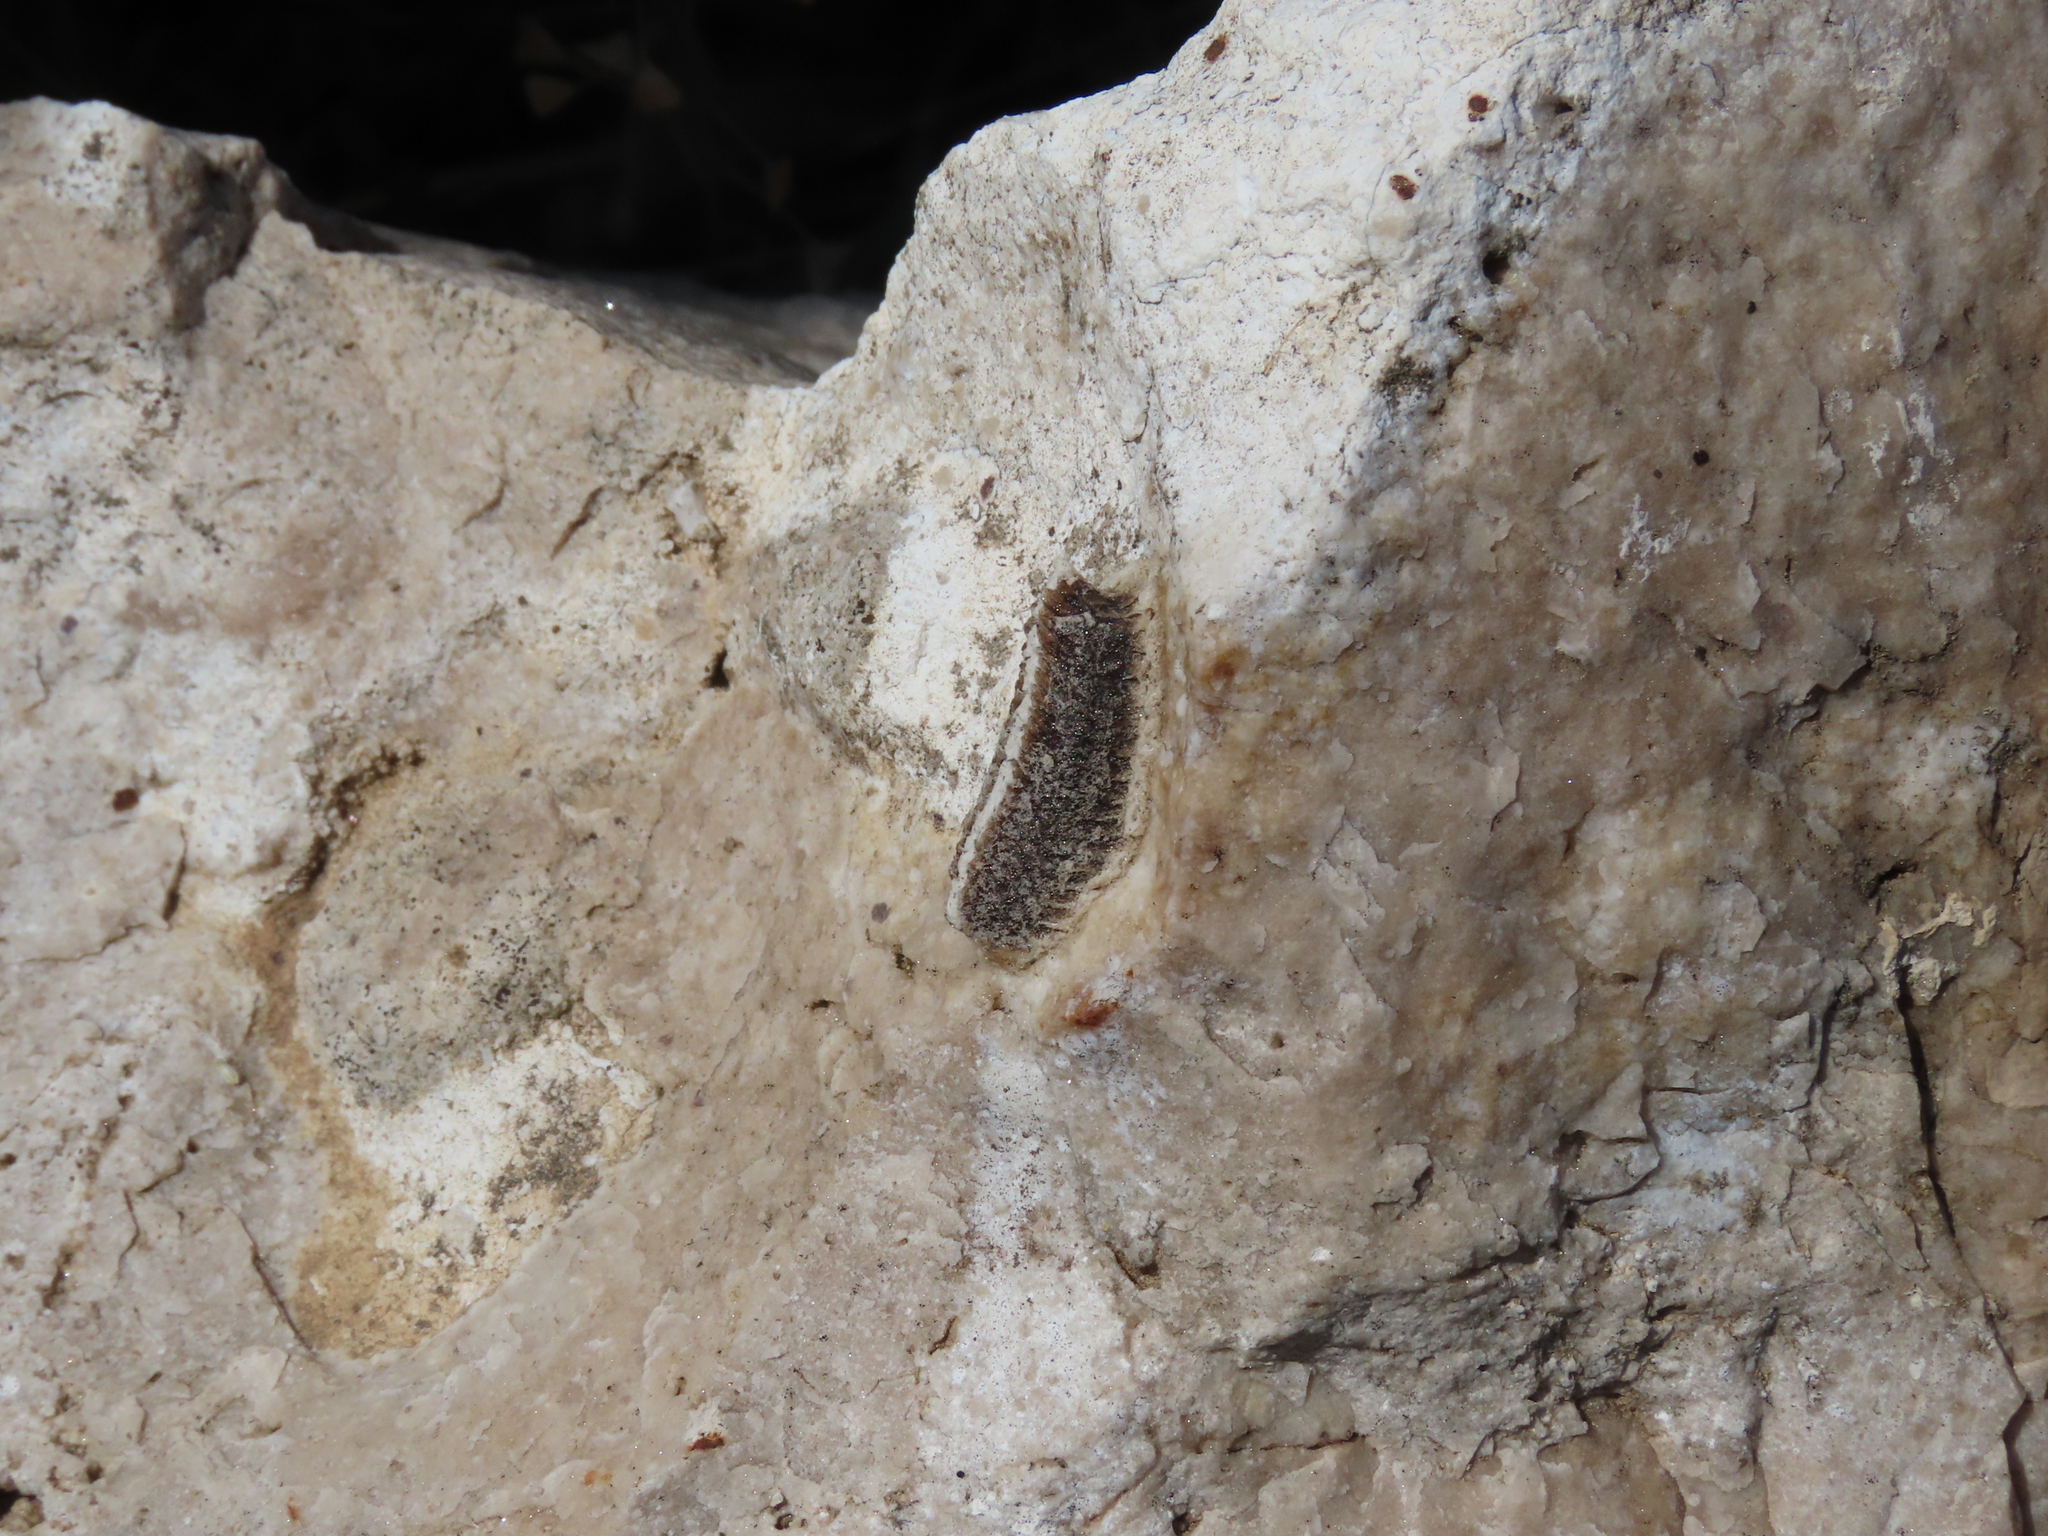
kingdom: Animalia
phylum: Arthropoda
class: Insecta
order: Mantodea
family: Eremiaphilidae
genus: Iris
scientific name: Iris oratoria
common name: Mediterranean mantis
